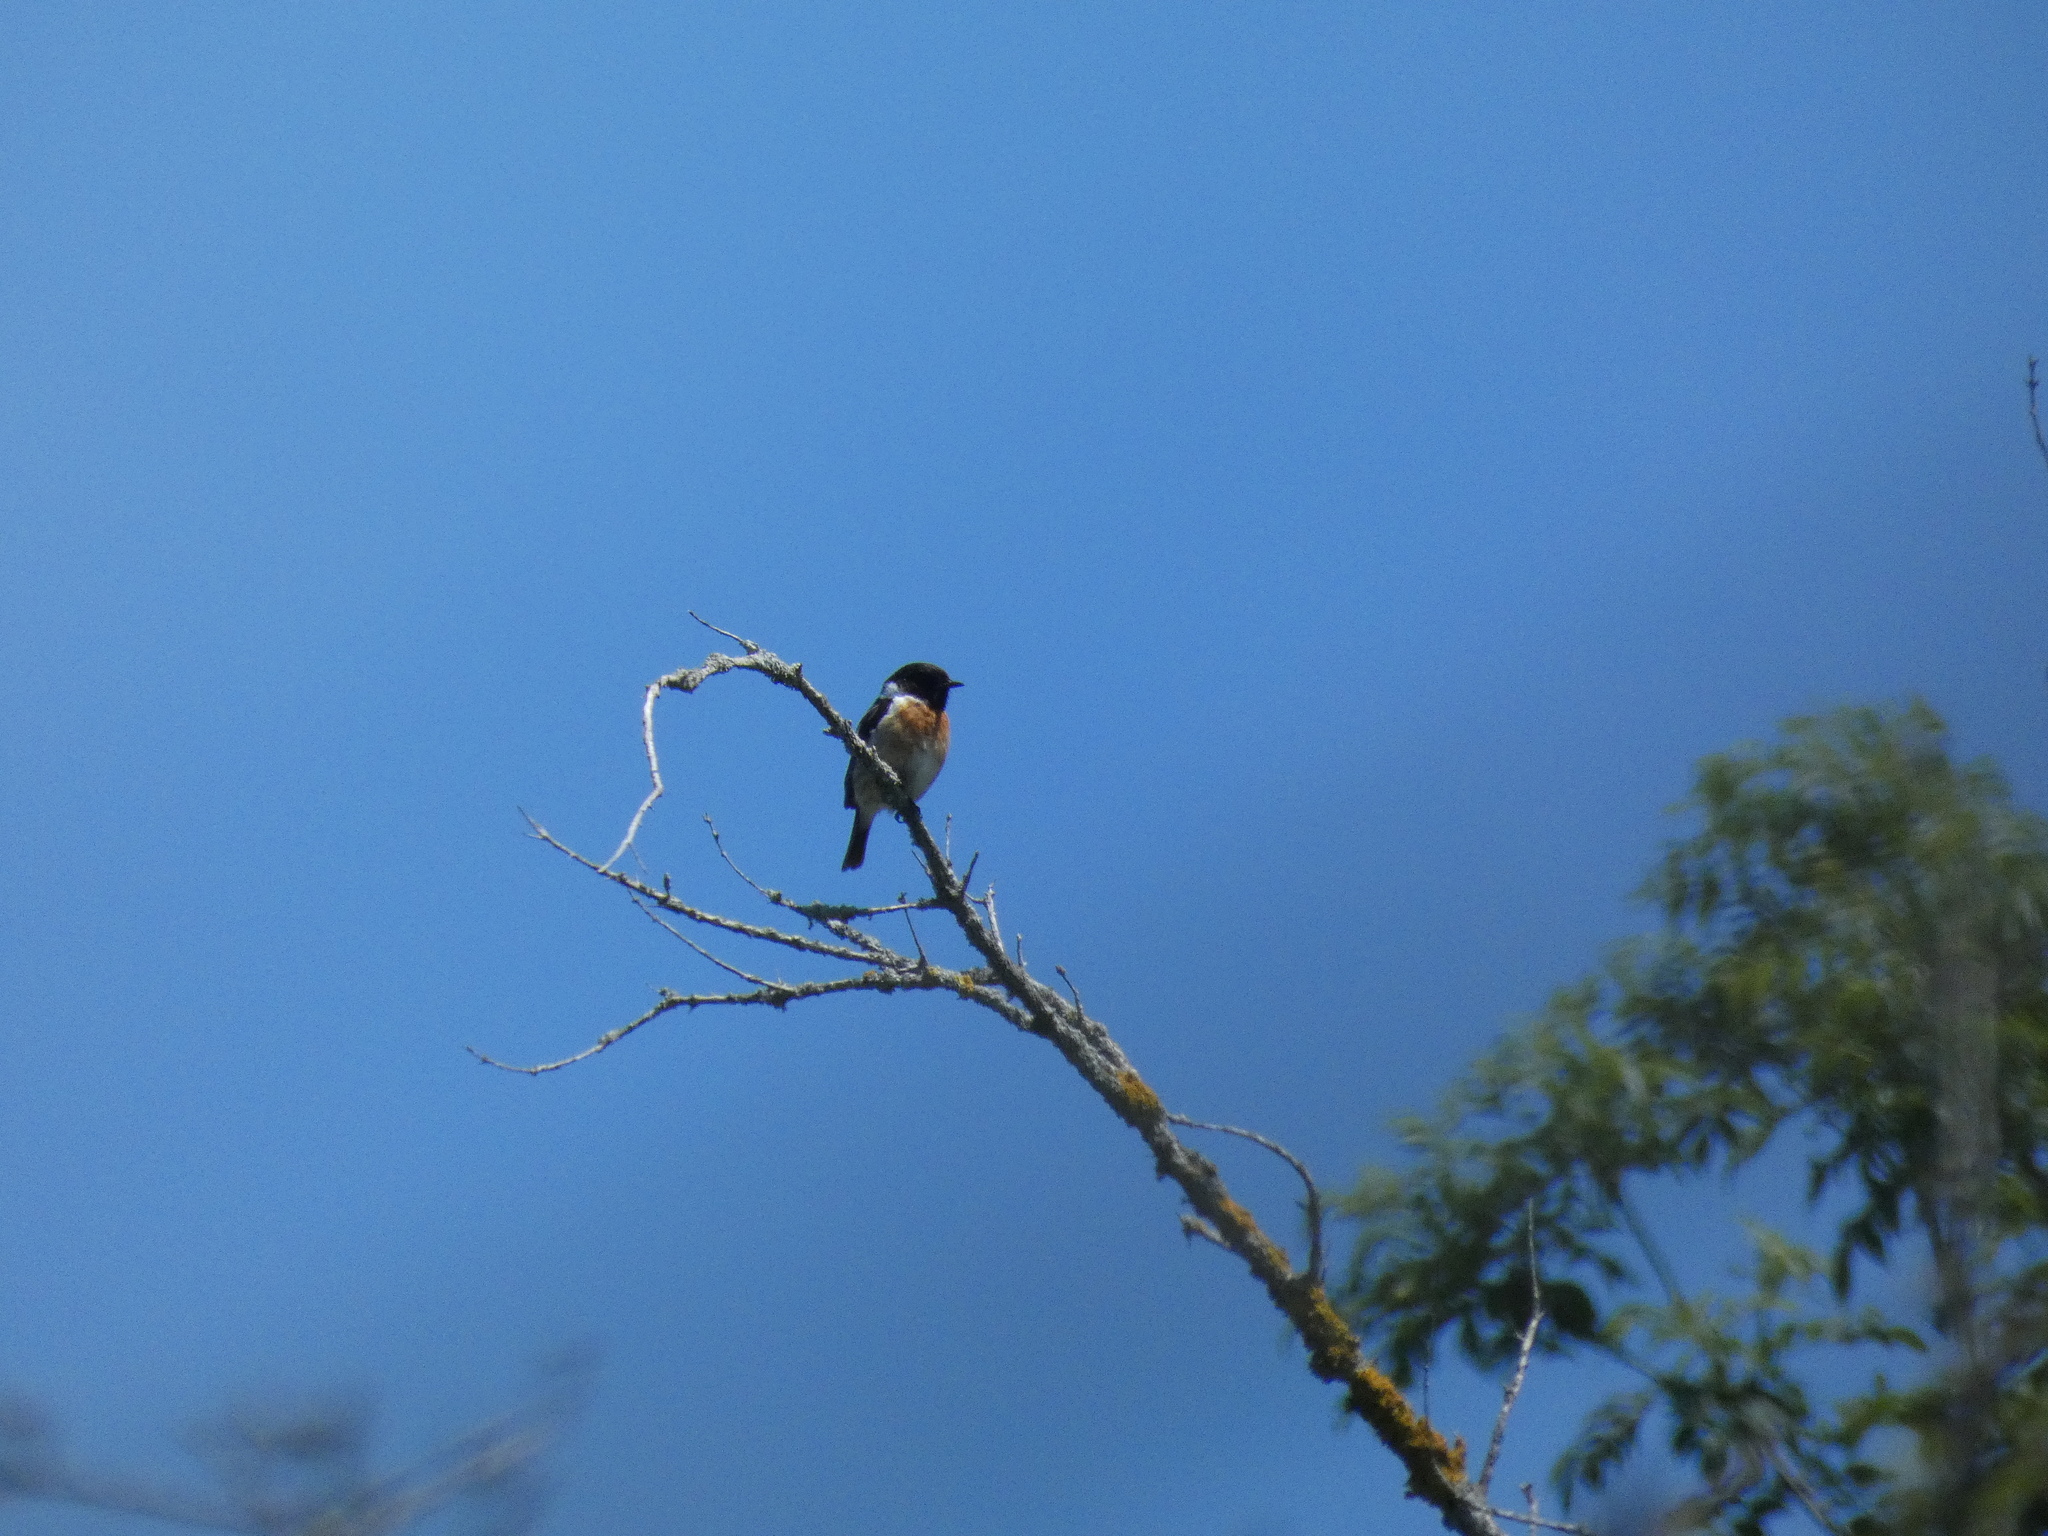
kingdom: Animalia
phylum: Chordata
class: Aves
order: Passeriformes
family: Muscicapidae
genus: Saxicola
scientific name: Saxicola rubicola
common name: European stonechat
